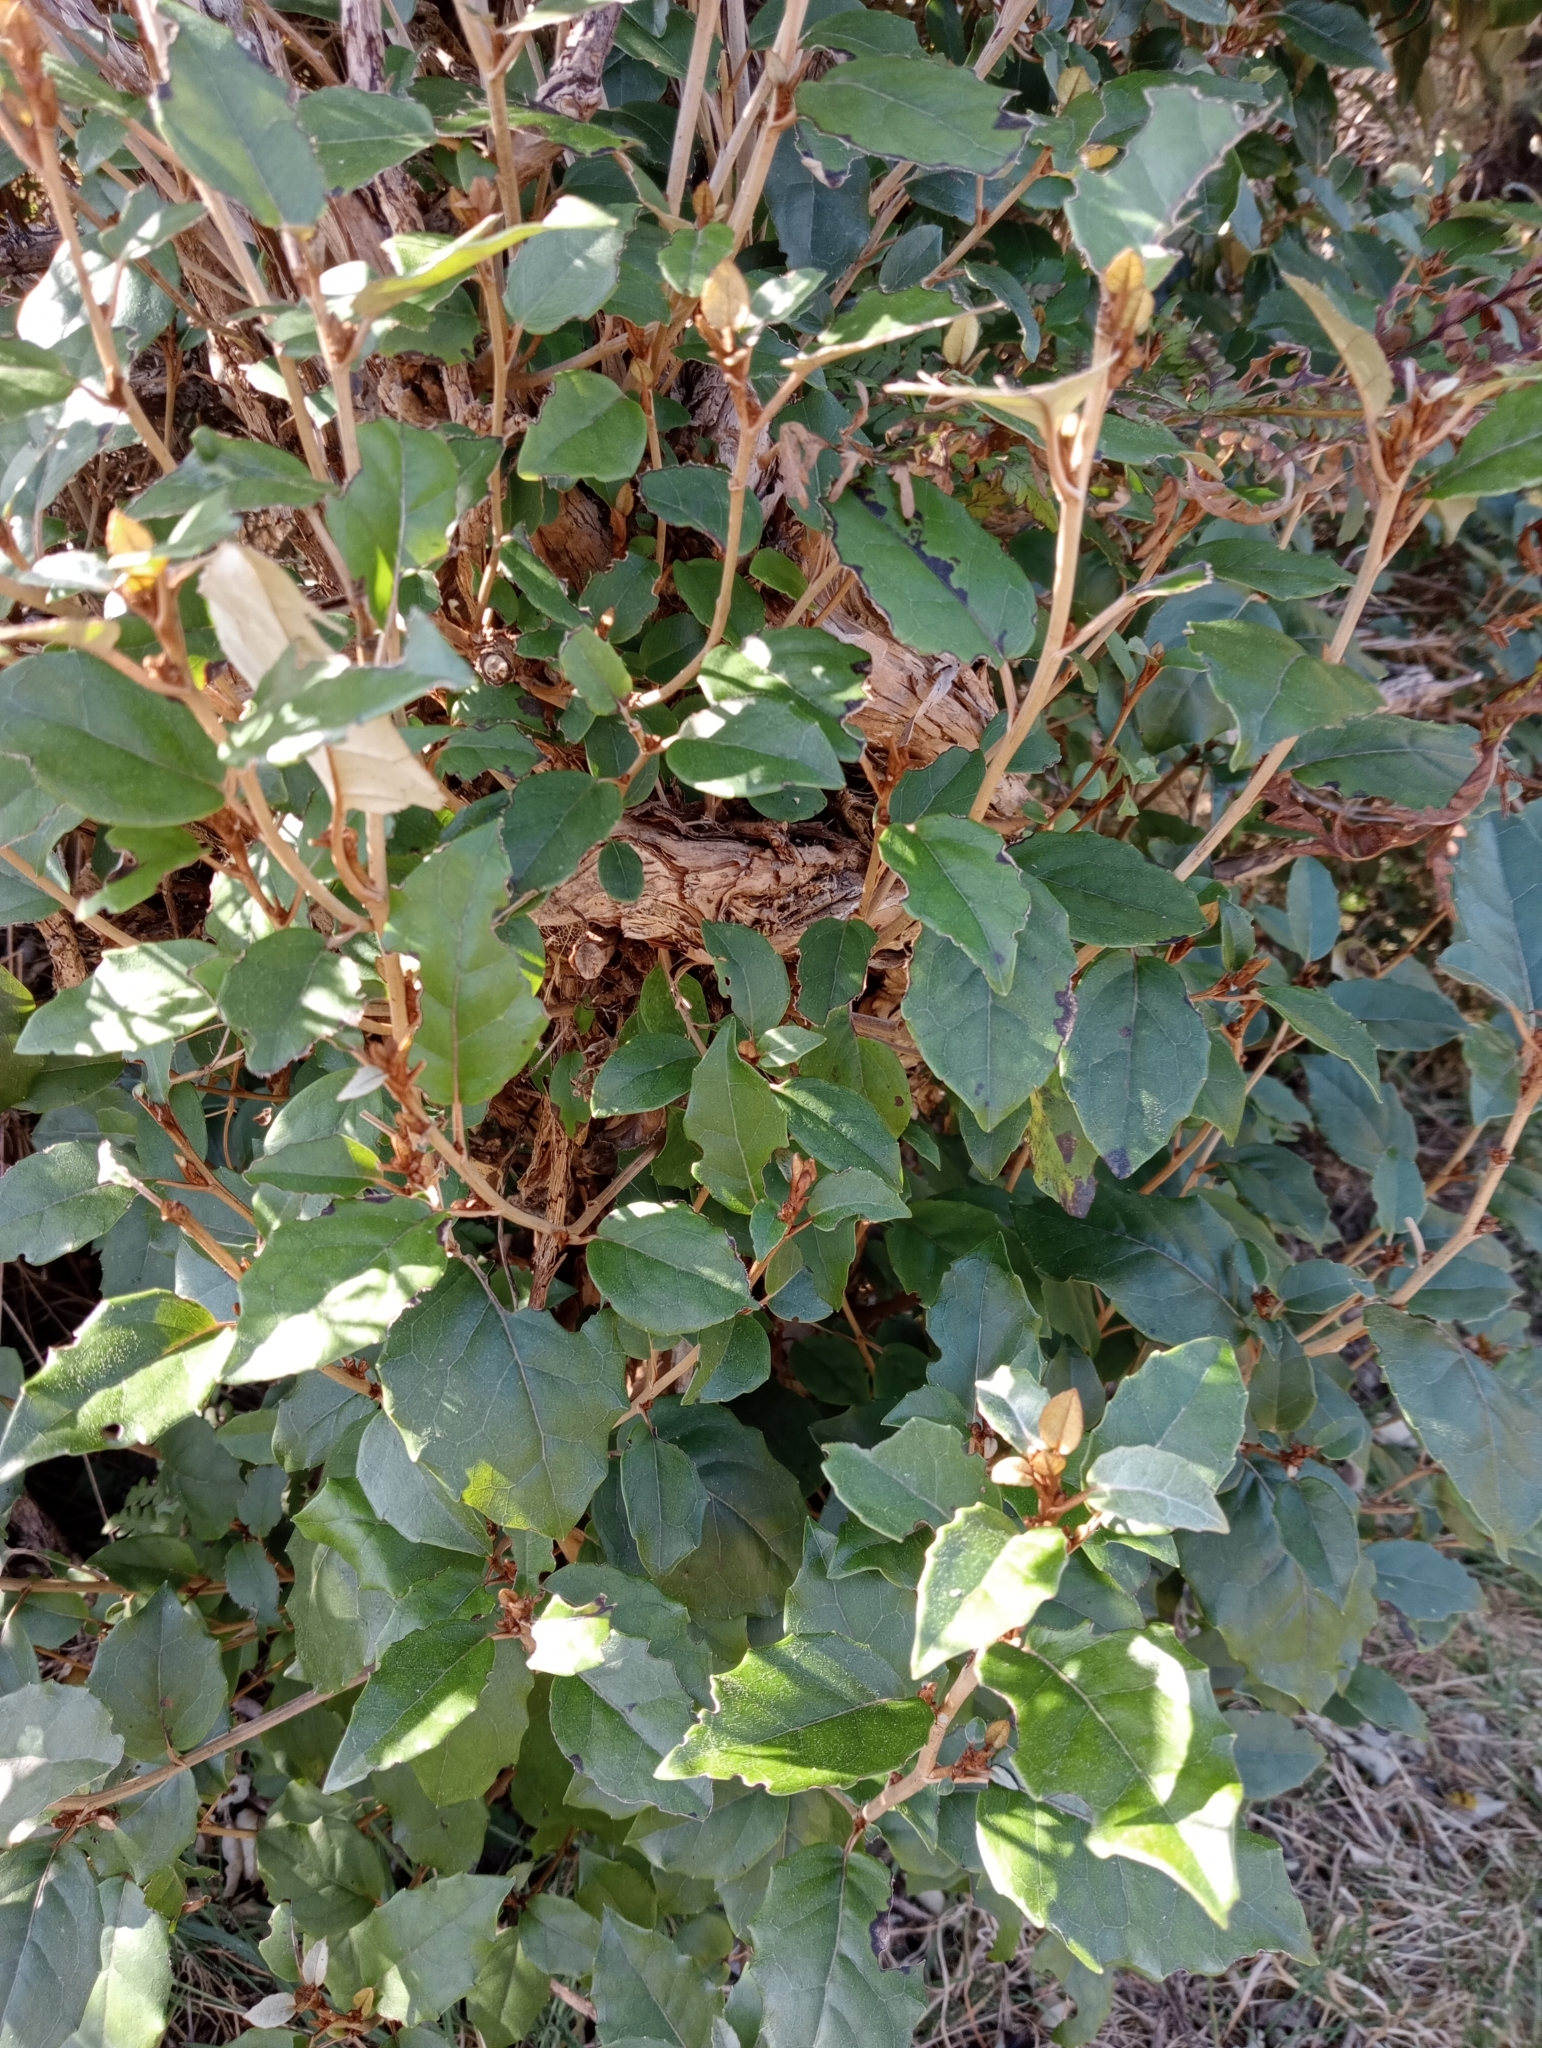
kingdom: Plantae
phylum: Tracheophyta
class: Magnoliopsida
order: Asterales
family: Asteraceae
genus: Olearia
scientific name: Olearia arborescens
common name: Glossy tree daisy
